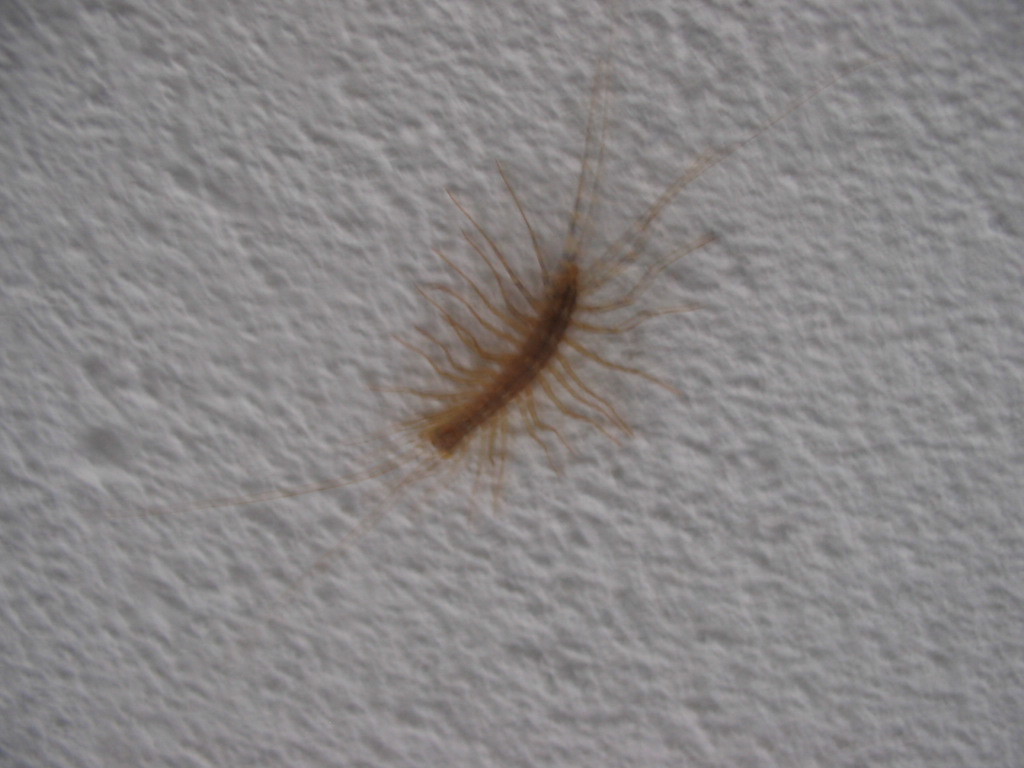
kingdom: Animalia
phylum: Arthropoda
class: Chilopoda
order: Scutigeromorpha
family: Scutigeridae
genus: Scutigera
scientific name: Scutigera coleoptrata
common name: House centipede
